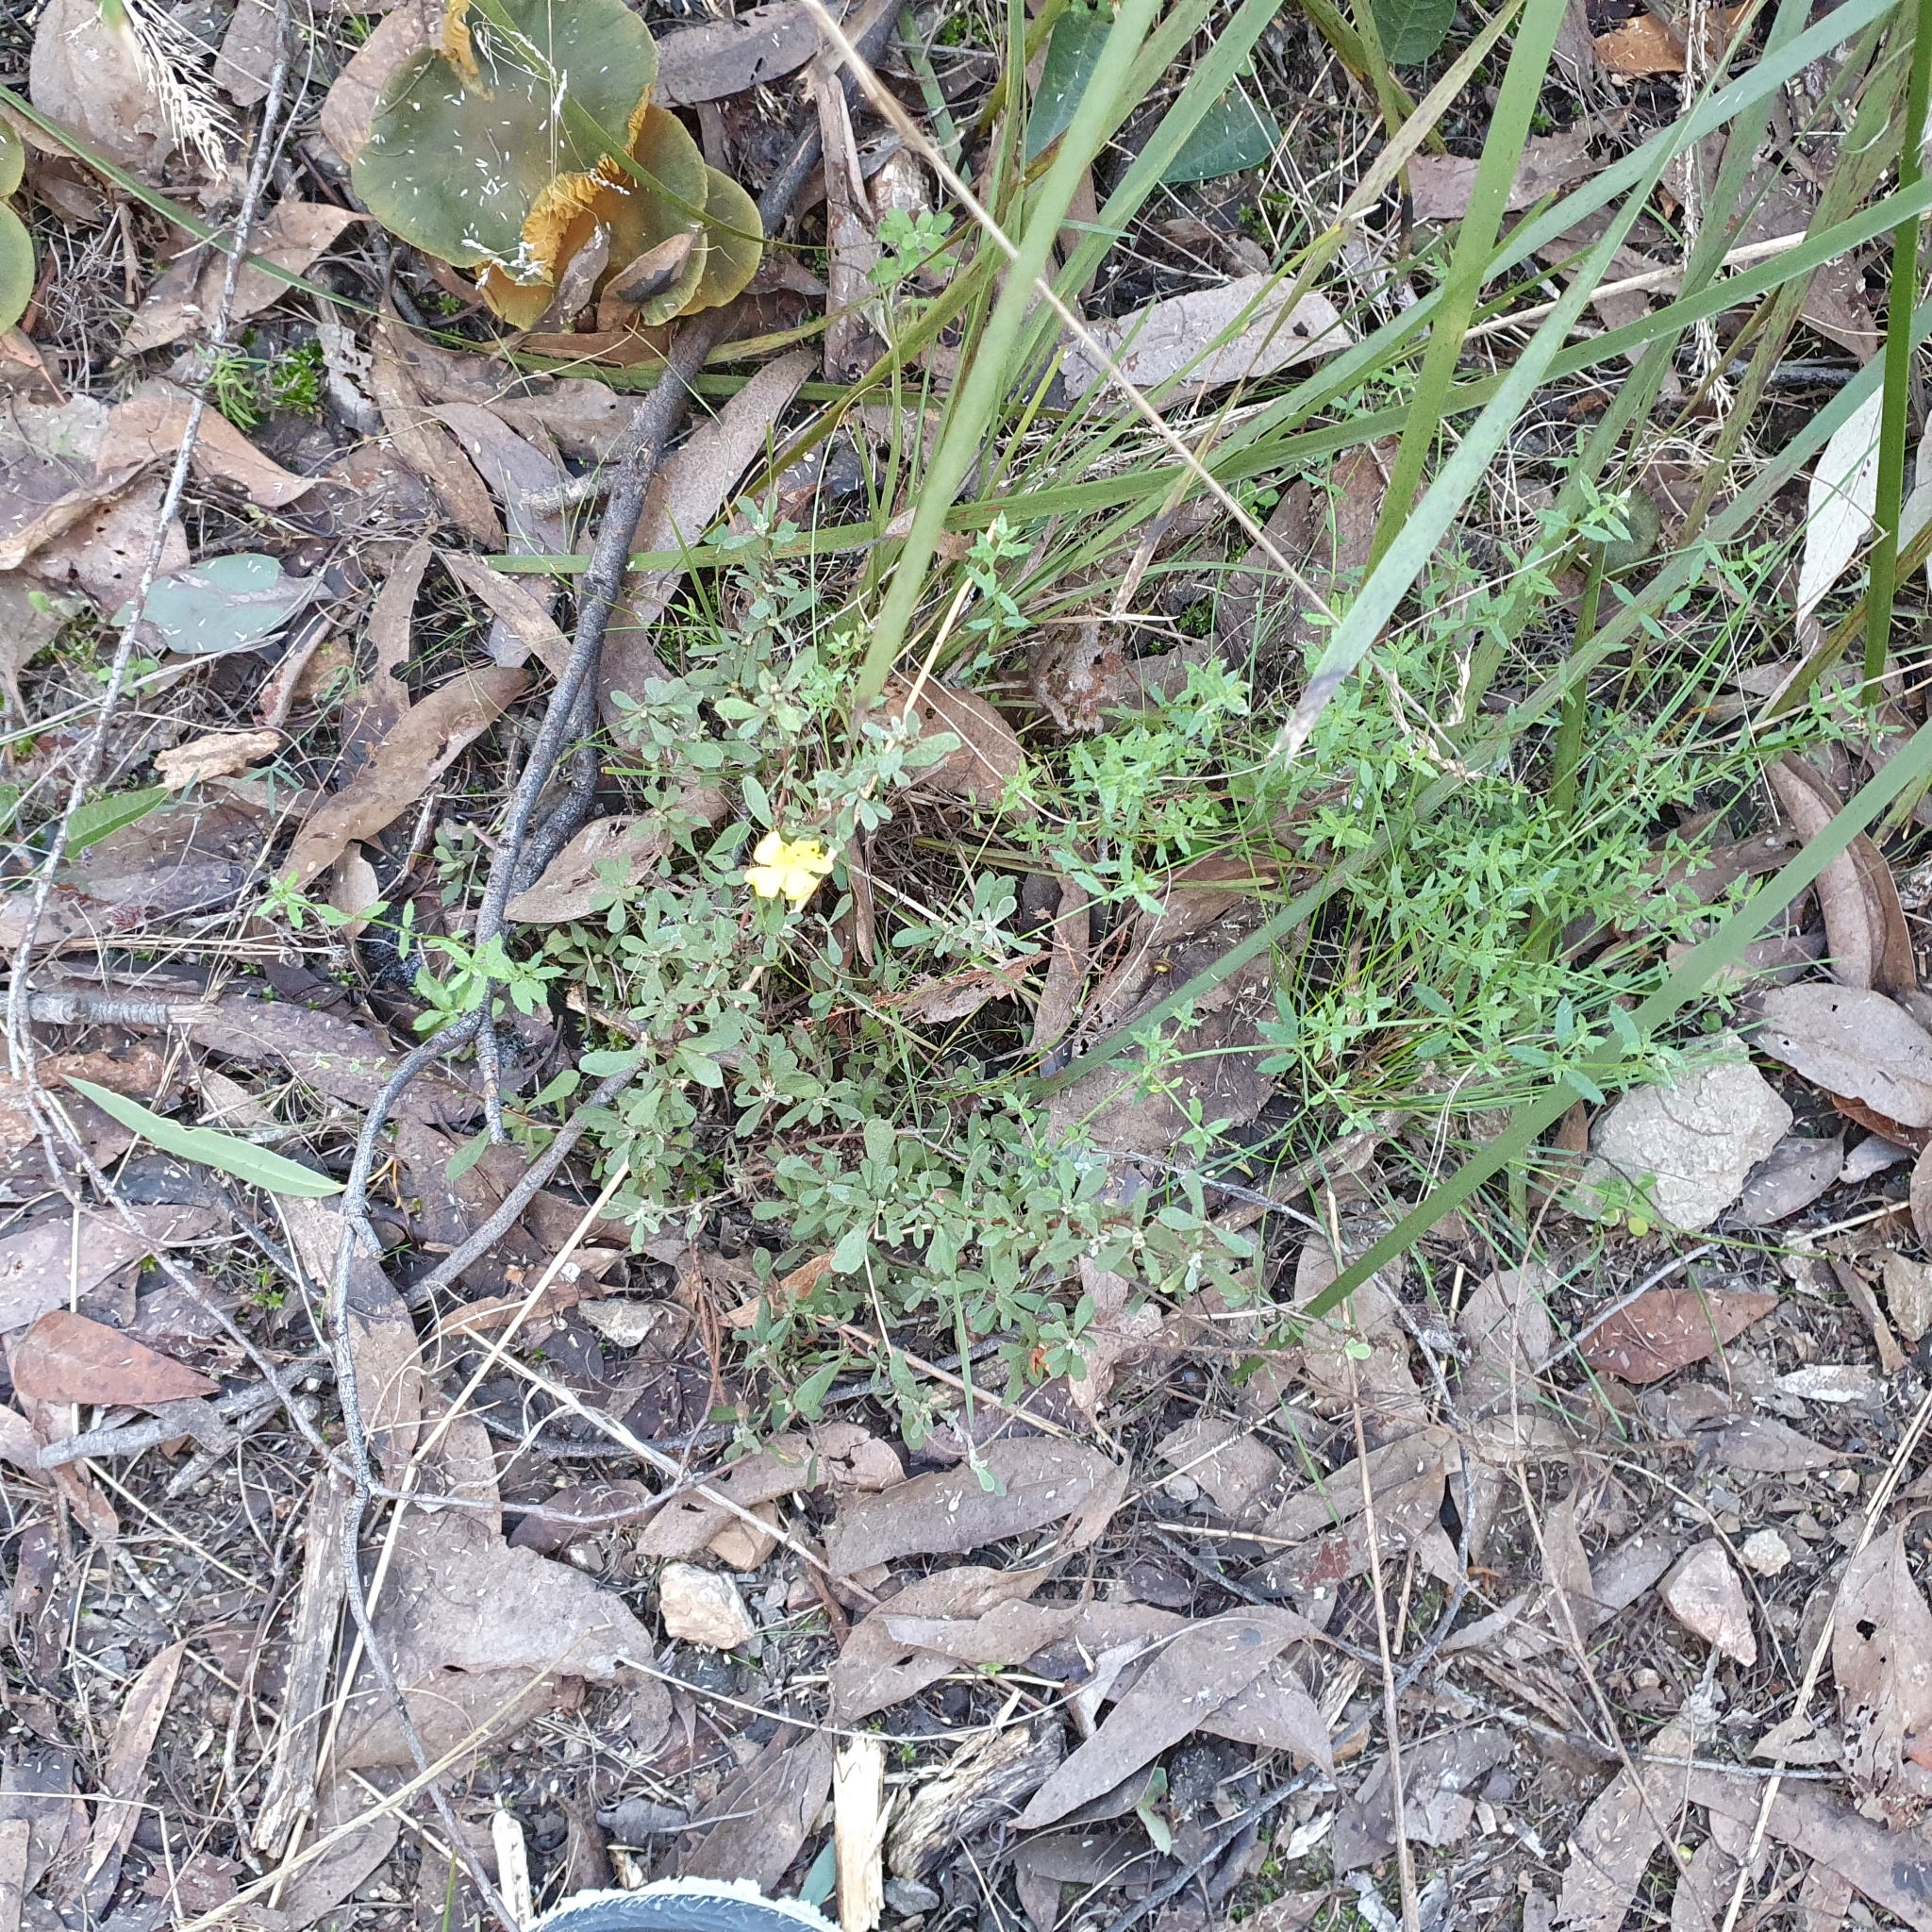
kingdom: Plantae
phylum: Tracheophyta
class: Magnoliopsida
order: Dilleniales
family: Dilleniaceae
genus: Hibbertia
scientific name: Hibbertia obtusifolia
